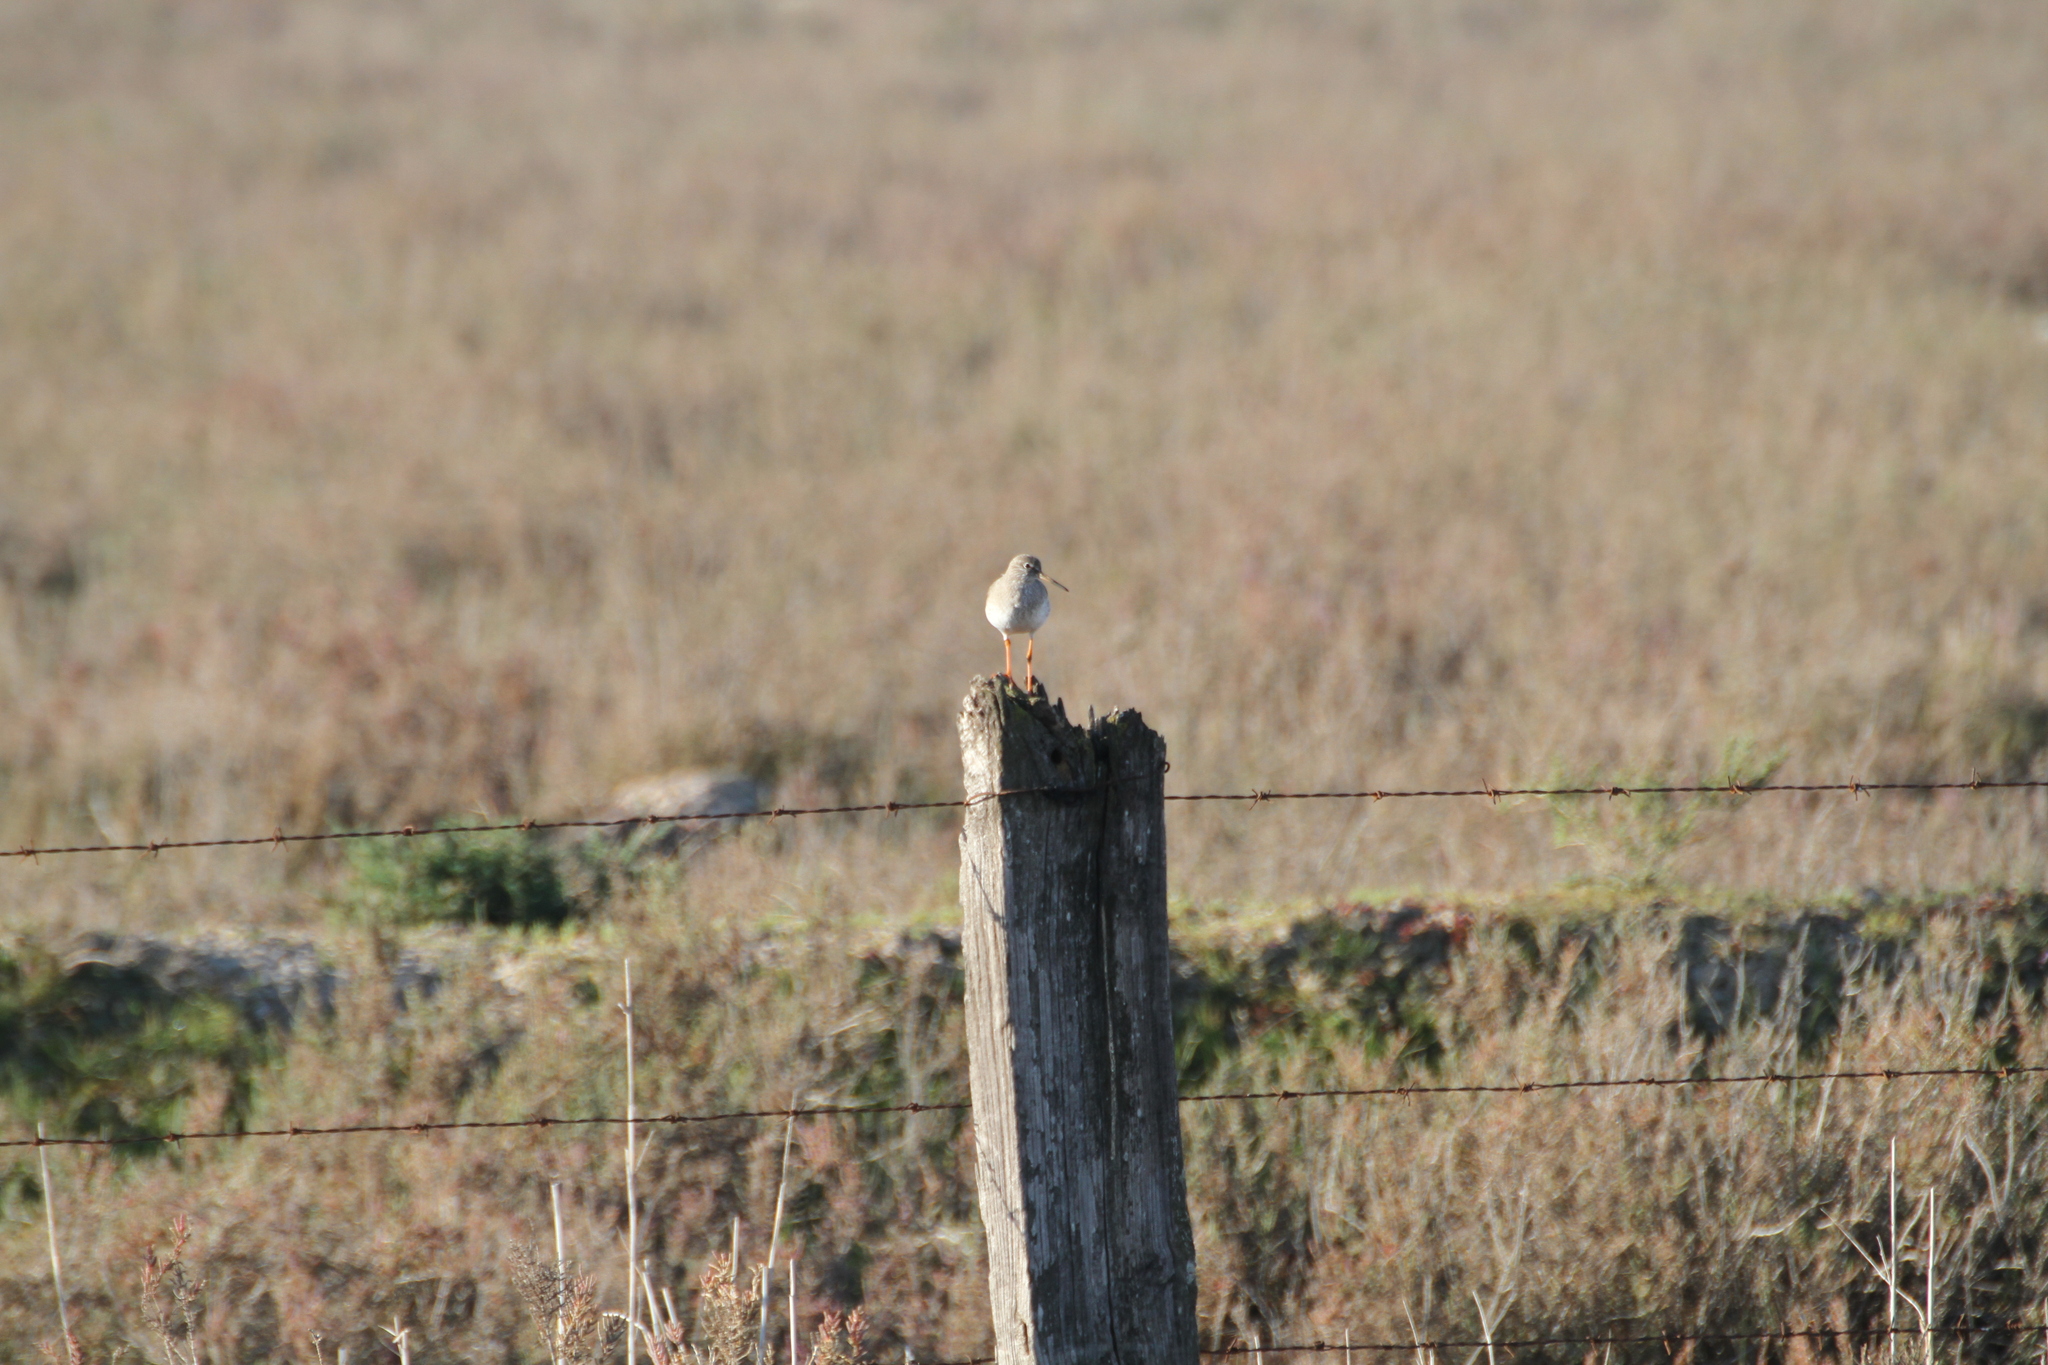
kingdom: Animalia
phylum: Chordata
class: Aves
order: Charadriiformes
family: Scolopacidae
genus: Tringa
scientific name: Tringa totanus
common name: Common redshank
